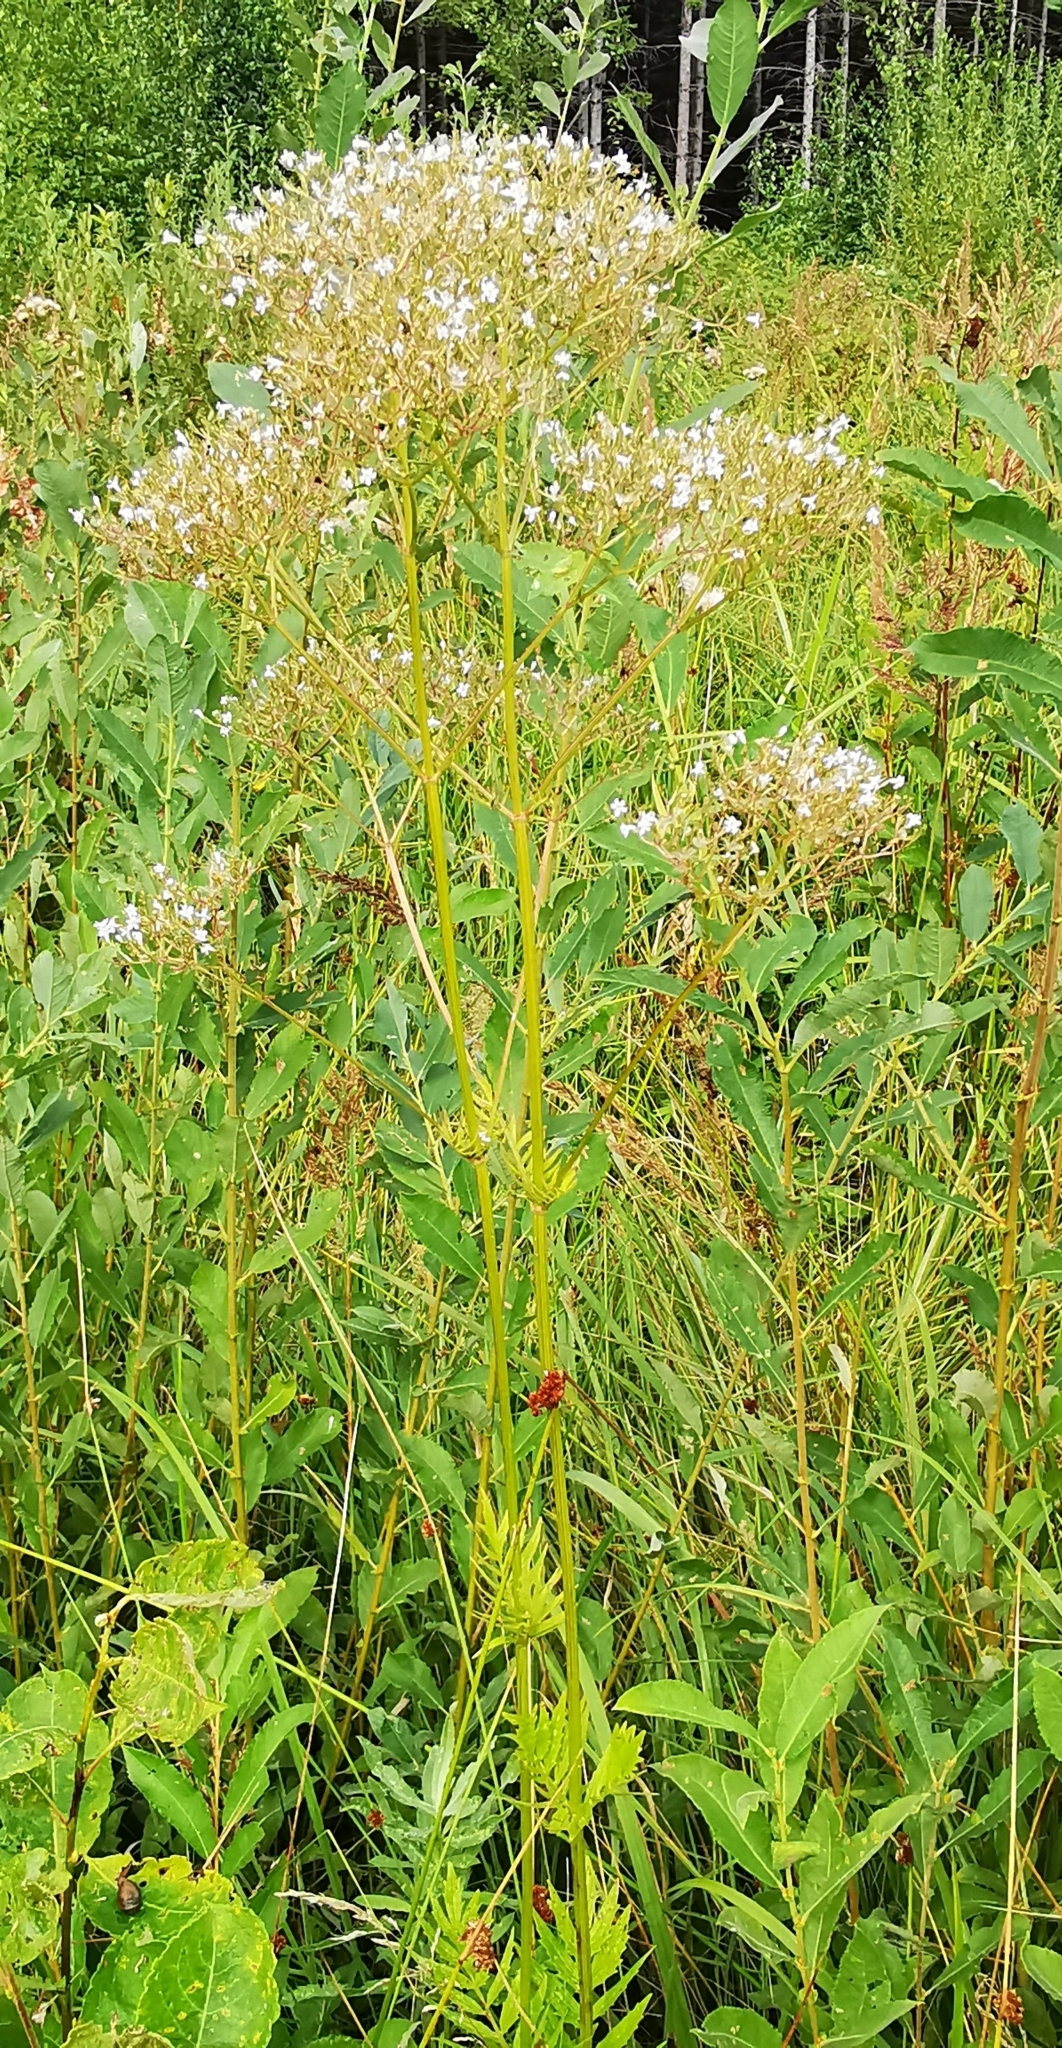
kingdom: Plantae
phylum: Tracheophyta
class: Magnoliopsida
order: Dipsacales
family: Caprifoliaceae
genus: Valeriana
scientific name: Valeriana officinalis
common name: Common valerian
